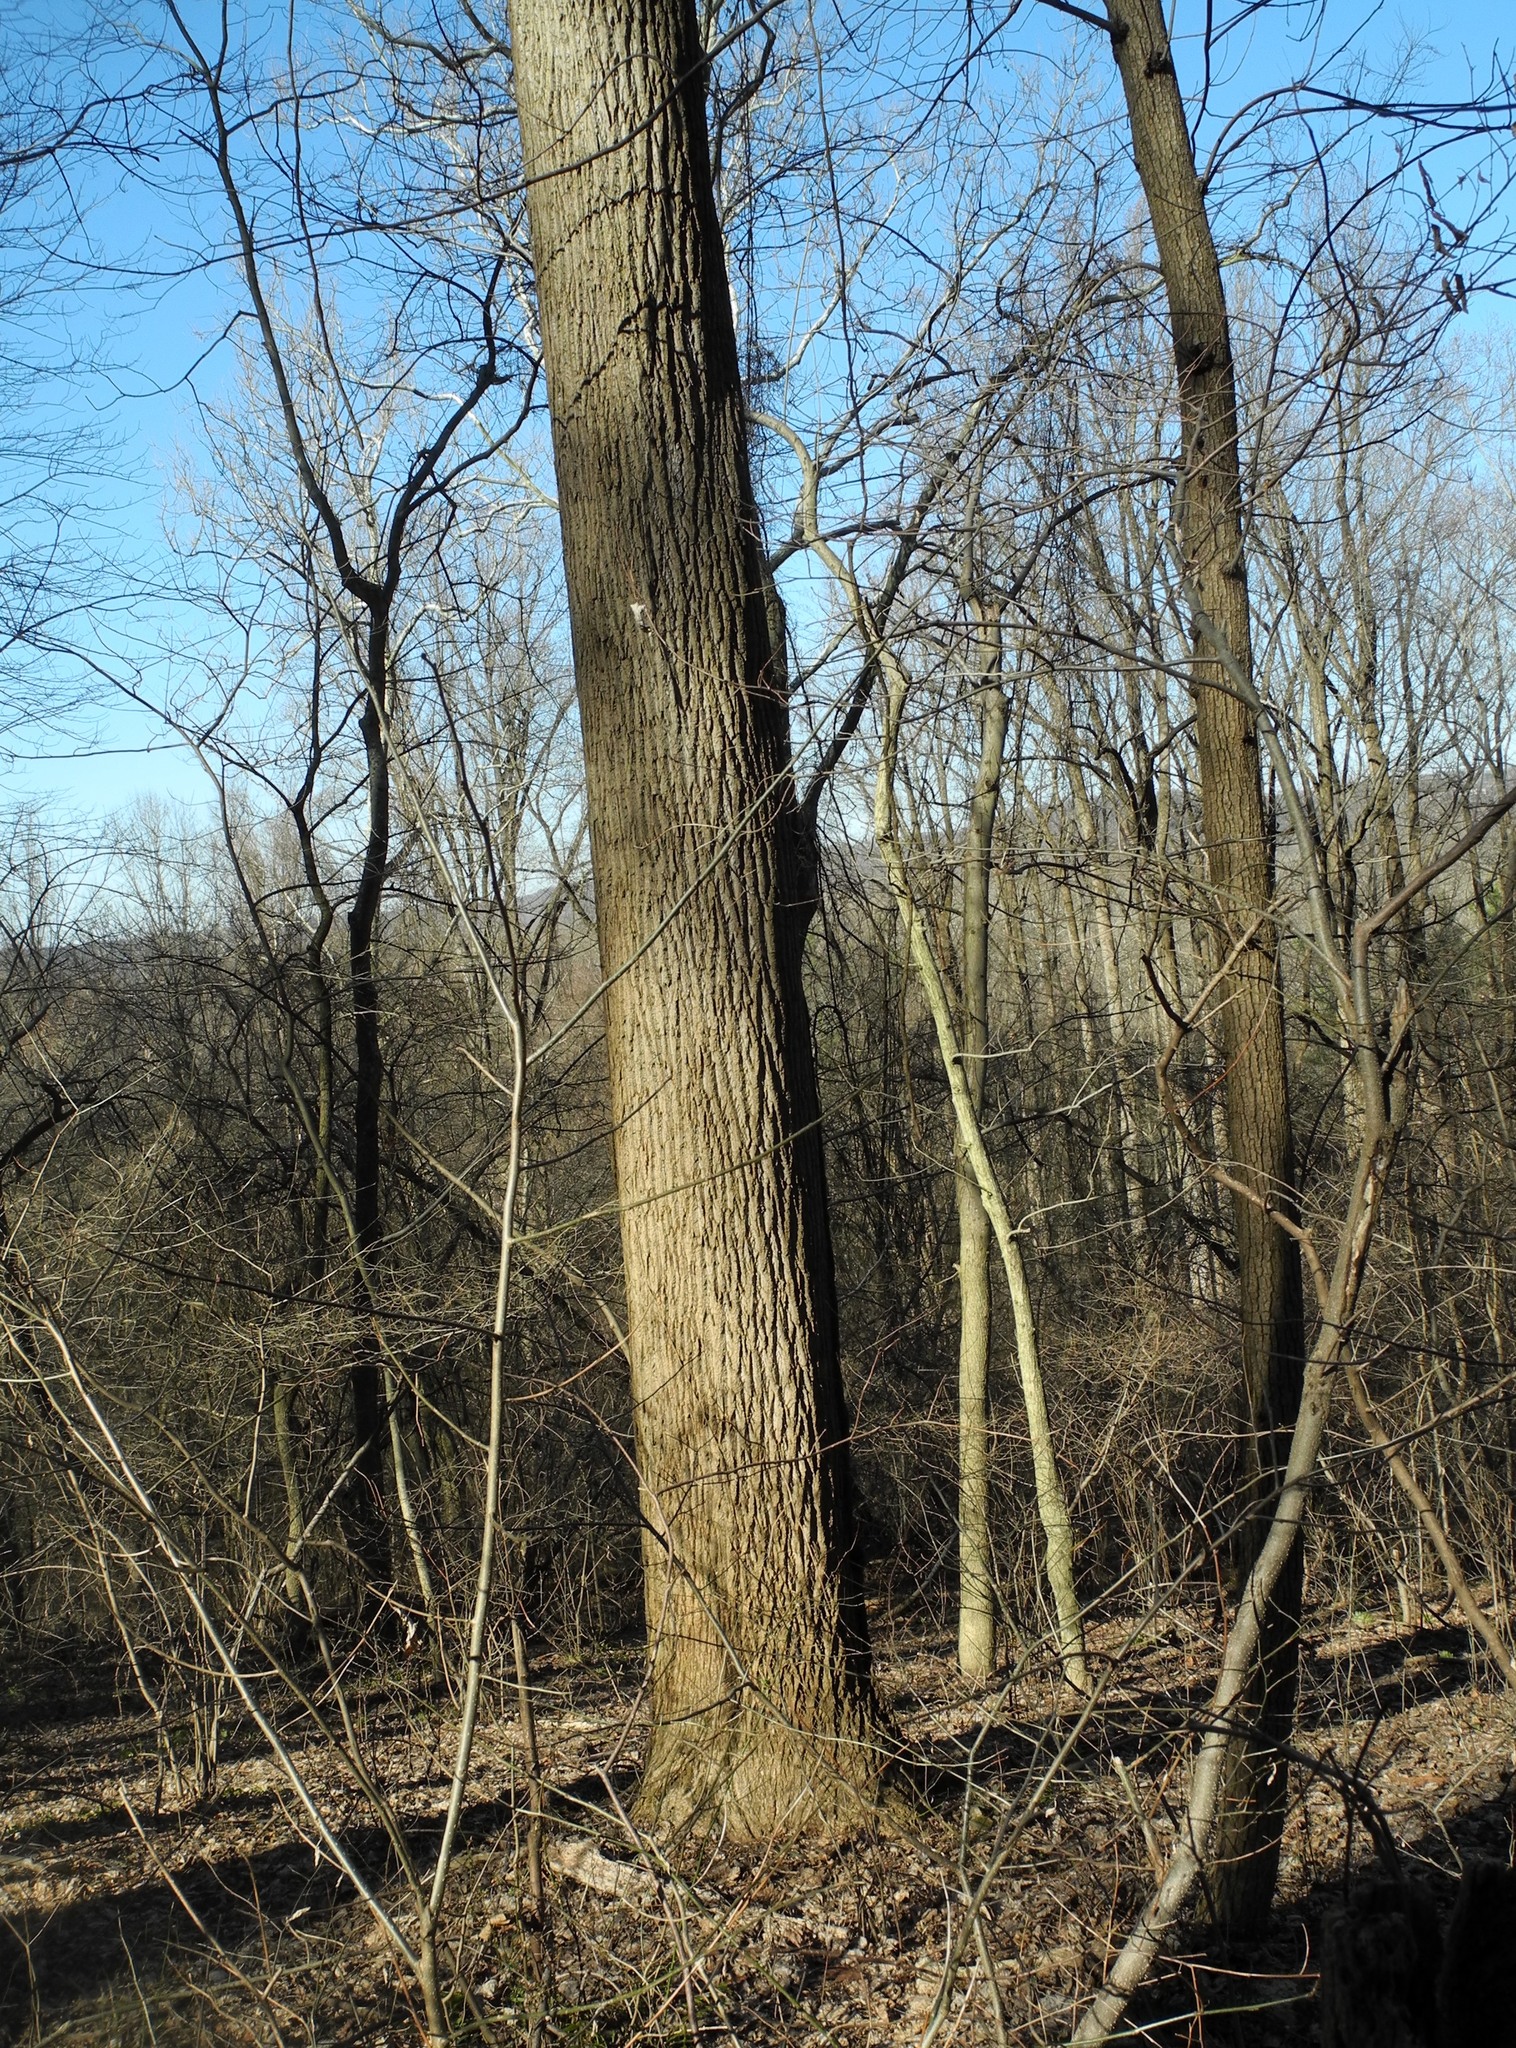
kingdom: Plantae
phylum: Tracheophyta
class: Magnoliopsida
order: Magnoliales
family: Magnoliaceae
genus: Liriodendron
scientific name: Liriodendron tulipifera
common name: Tulip tree
